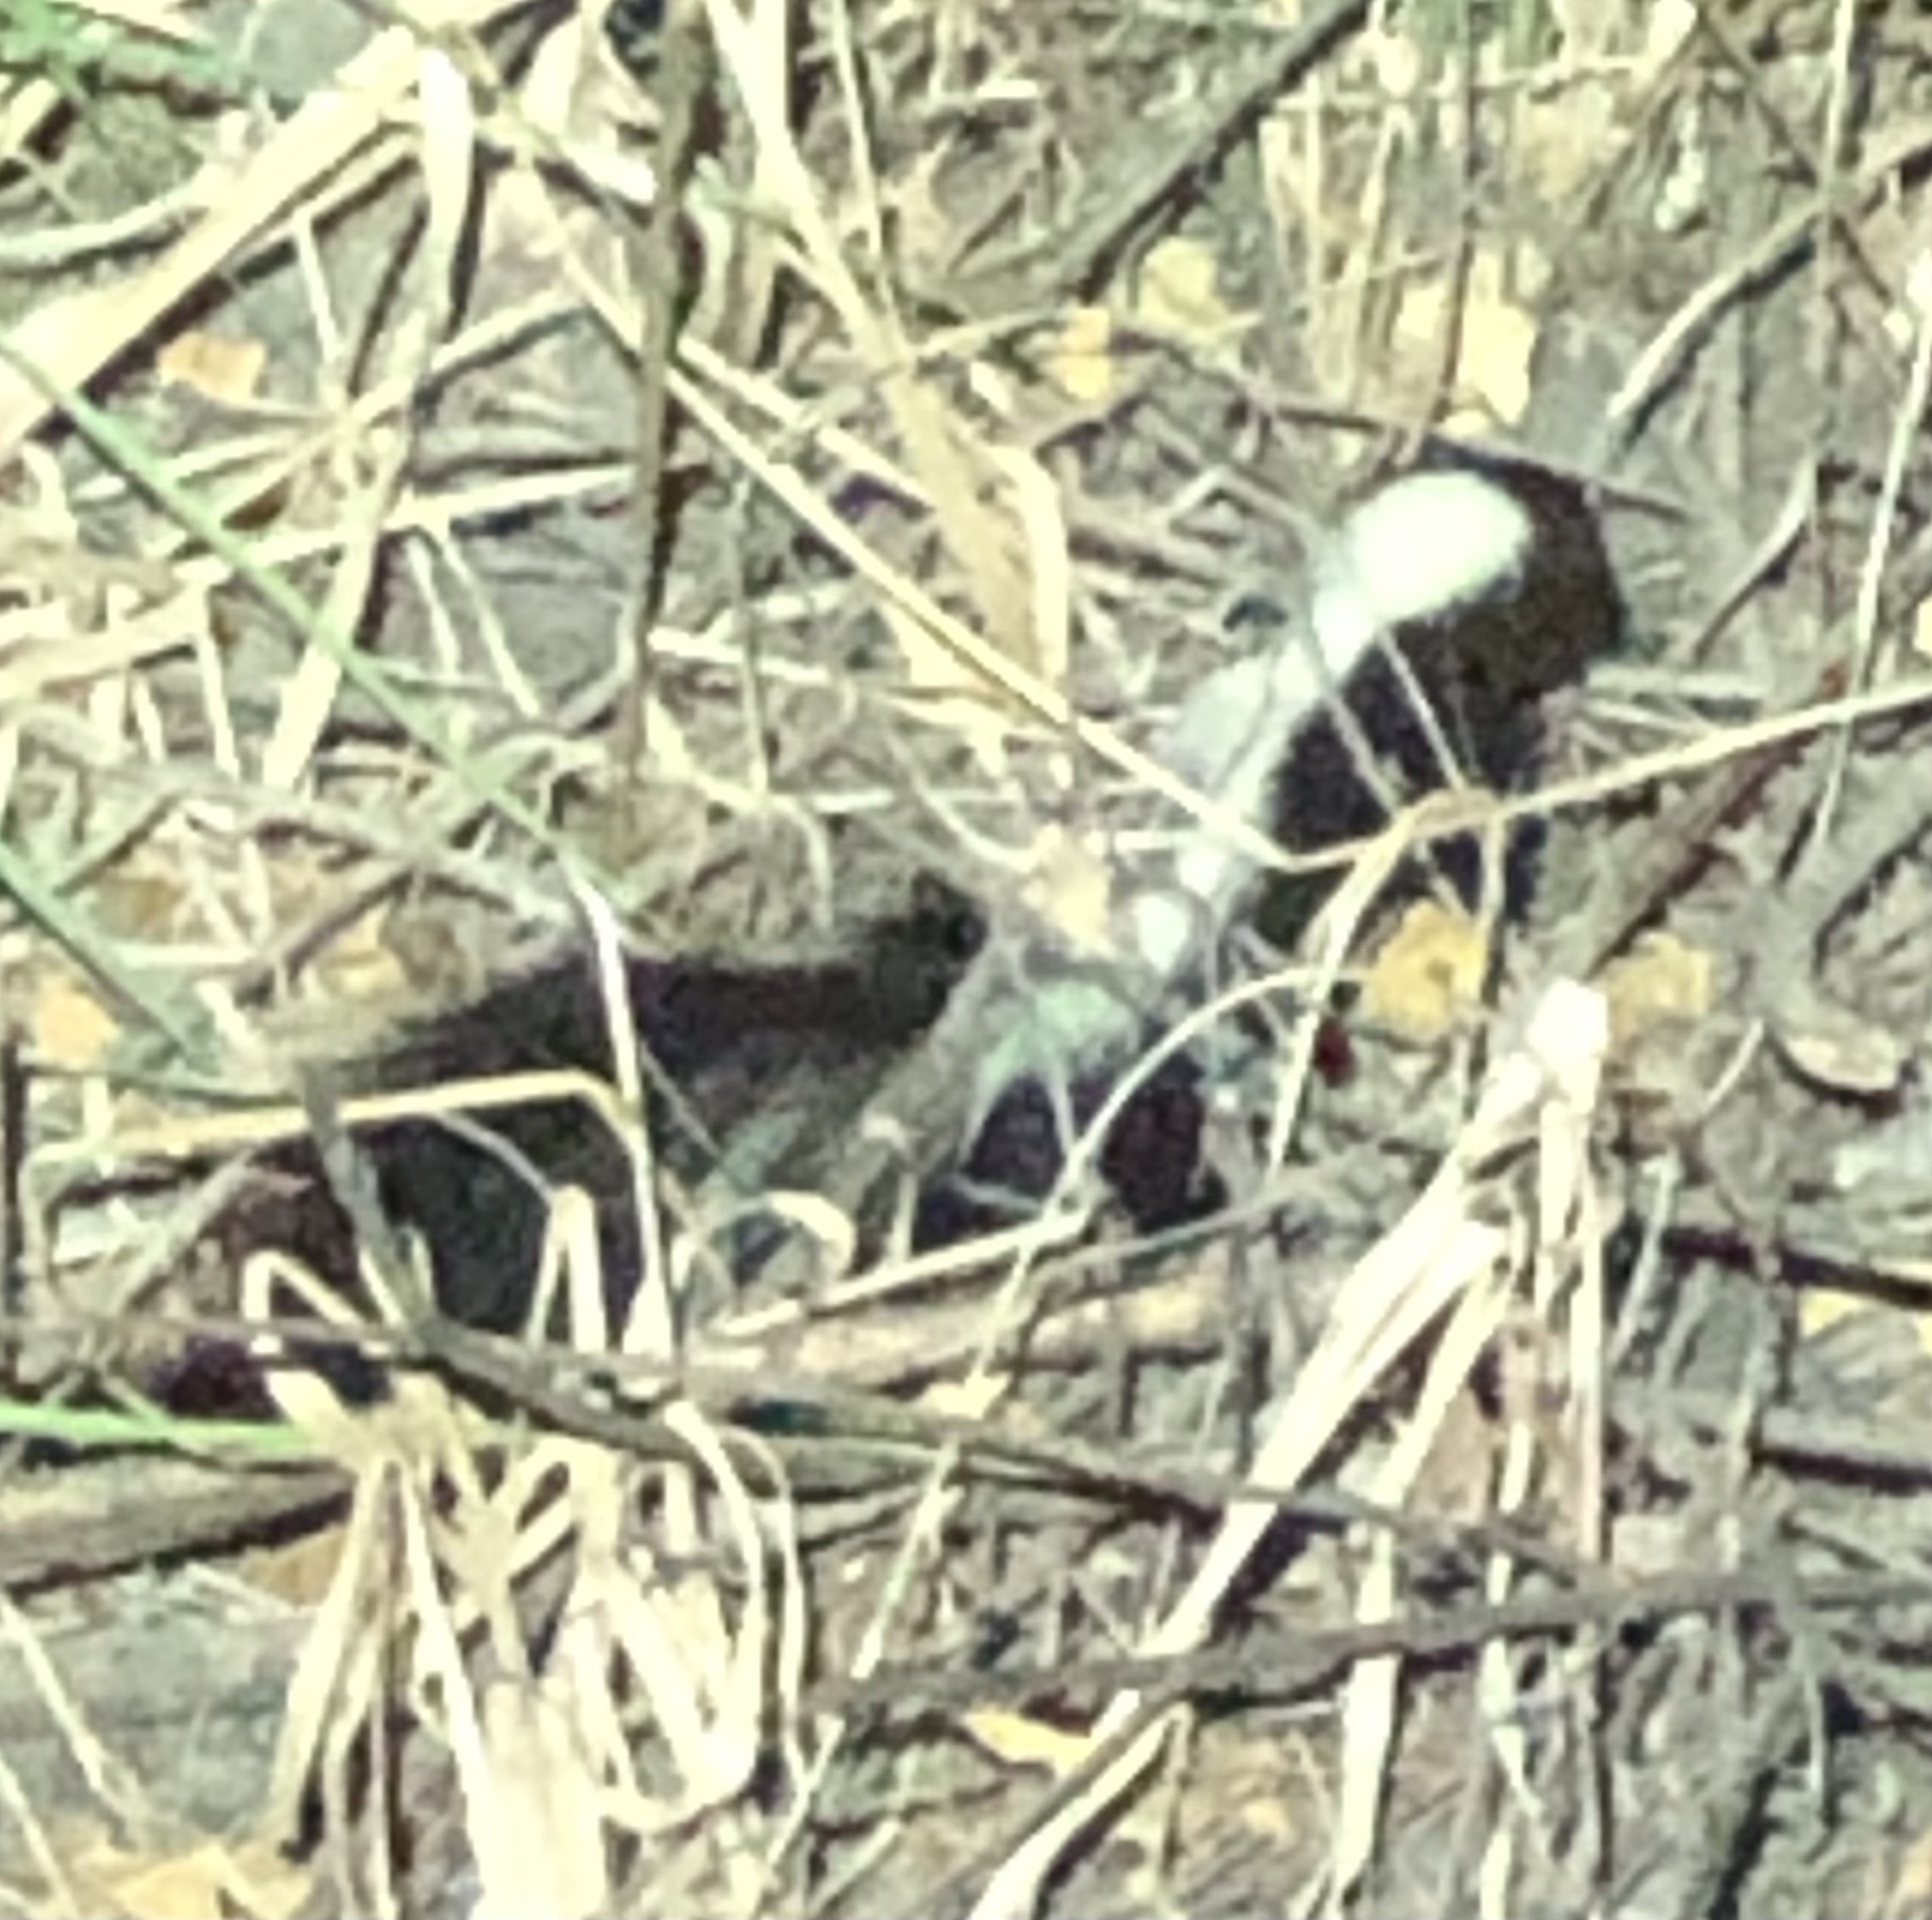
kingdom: Animalia
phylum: Chordata
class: Mammalia
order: Carnivora
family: Mephitidae
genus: Mephitis
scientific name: Mephitis mephitis
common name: Striped skunk
